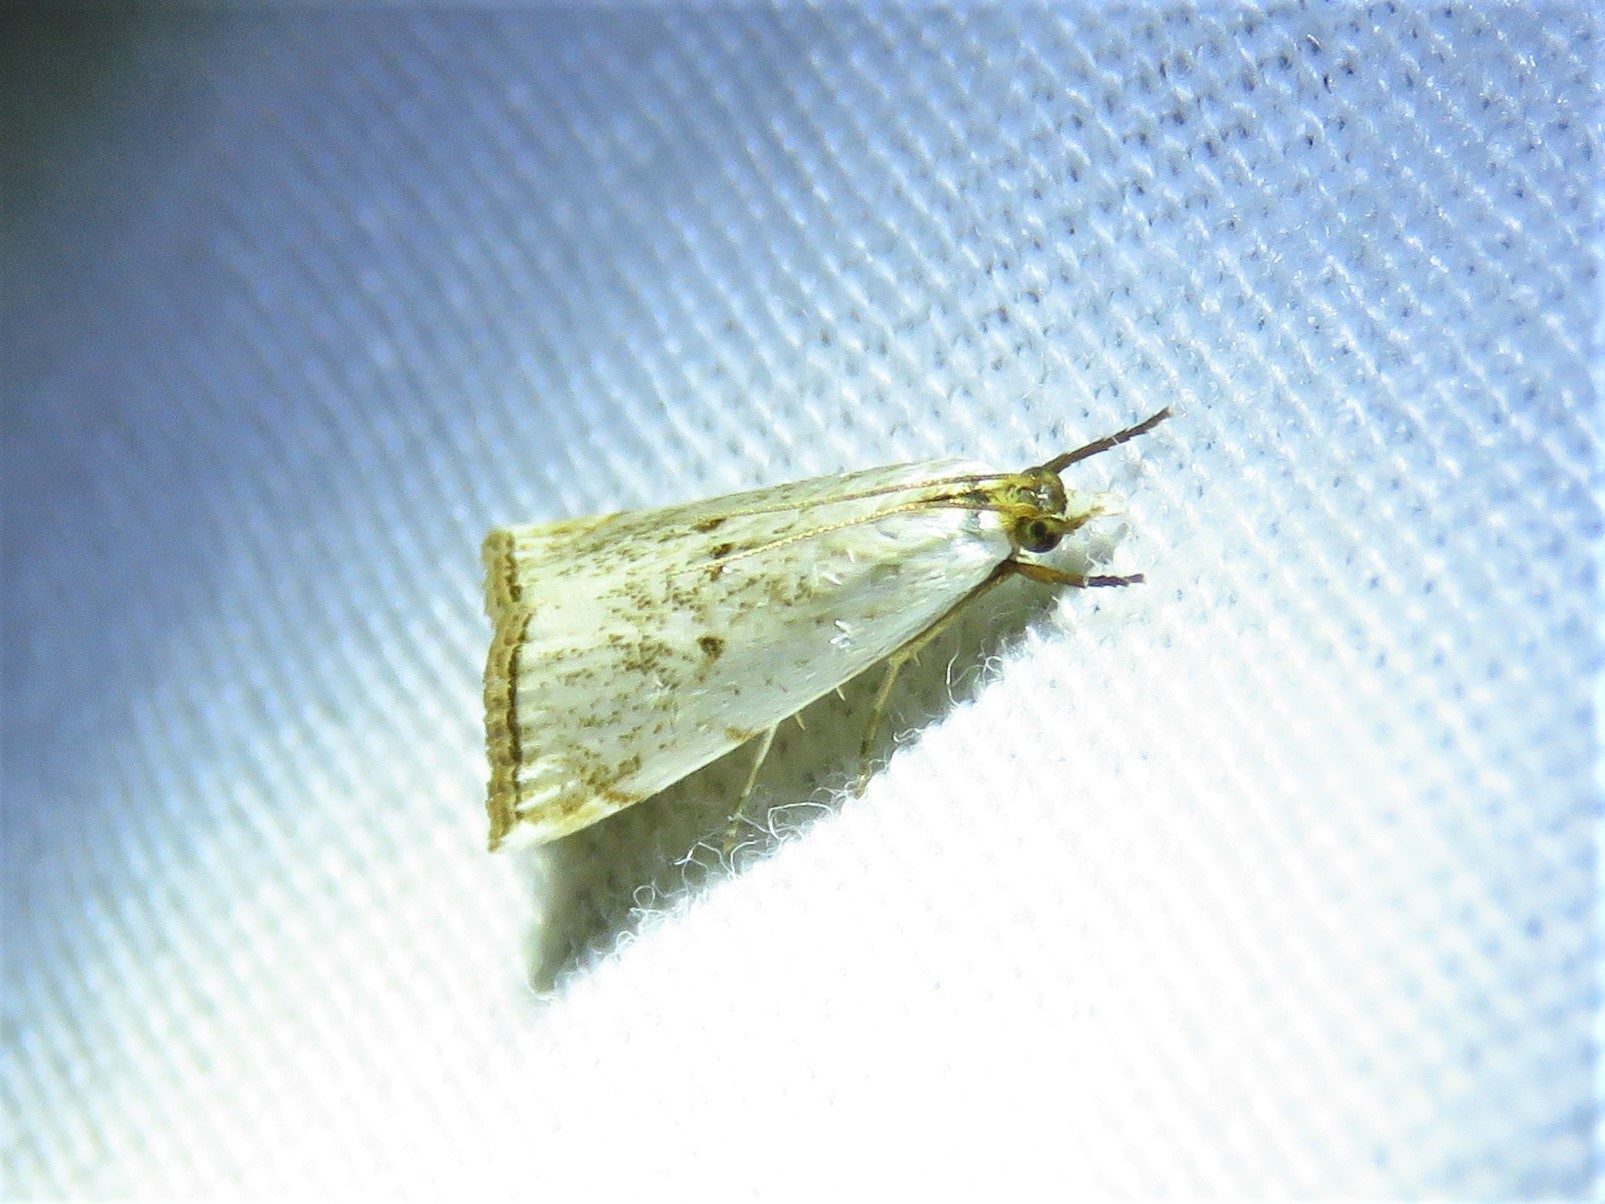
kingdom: Animalia
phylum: Arthropoda
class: Insecta
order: Lepidoptera
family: Crambidae
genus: Argyria
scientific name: Argyria pusillalis
